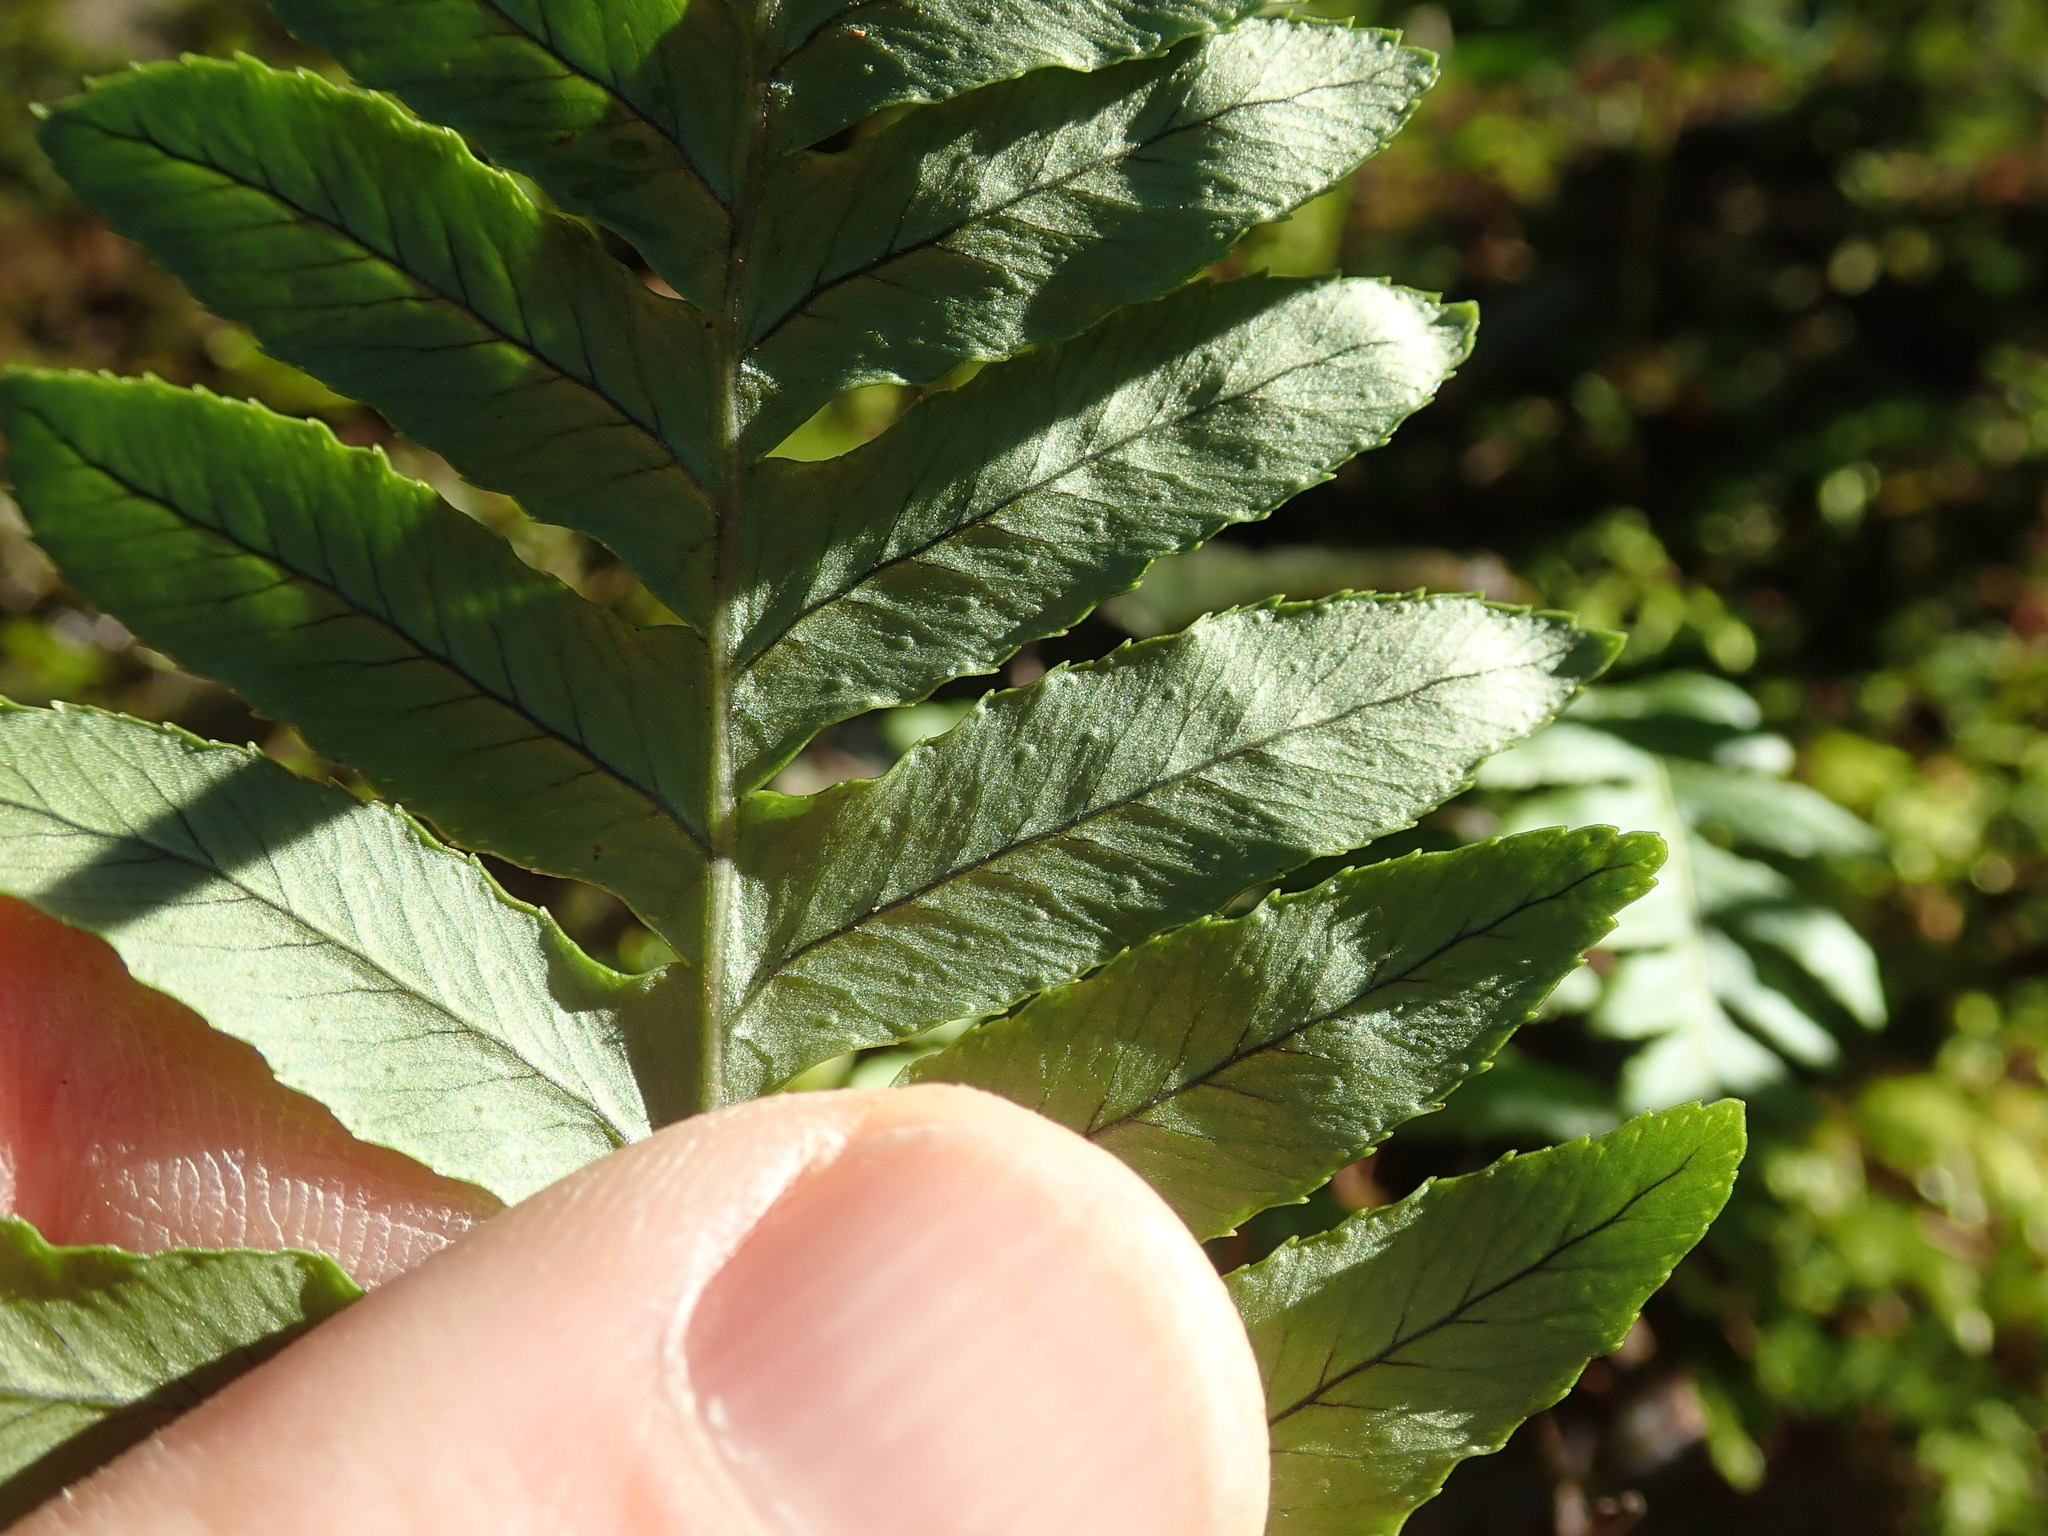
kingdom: Plantae
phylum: Tracheophyta
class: Polypodiopsida
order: Polypodiales
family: Polypodiaceae
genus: Polypodium
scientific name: Polypodium glycyrrhiza
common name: Licorice fern
